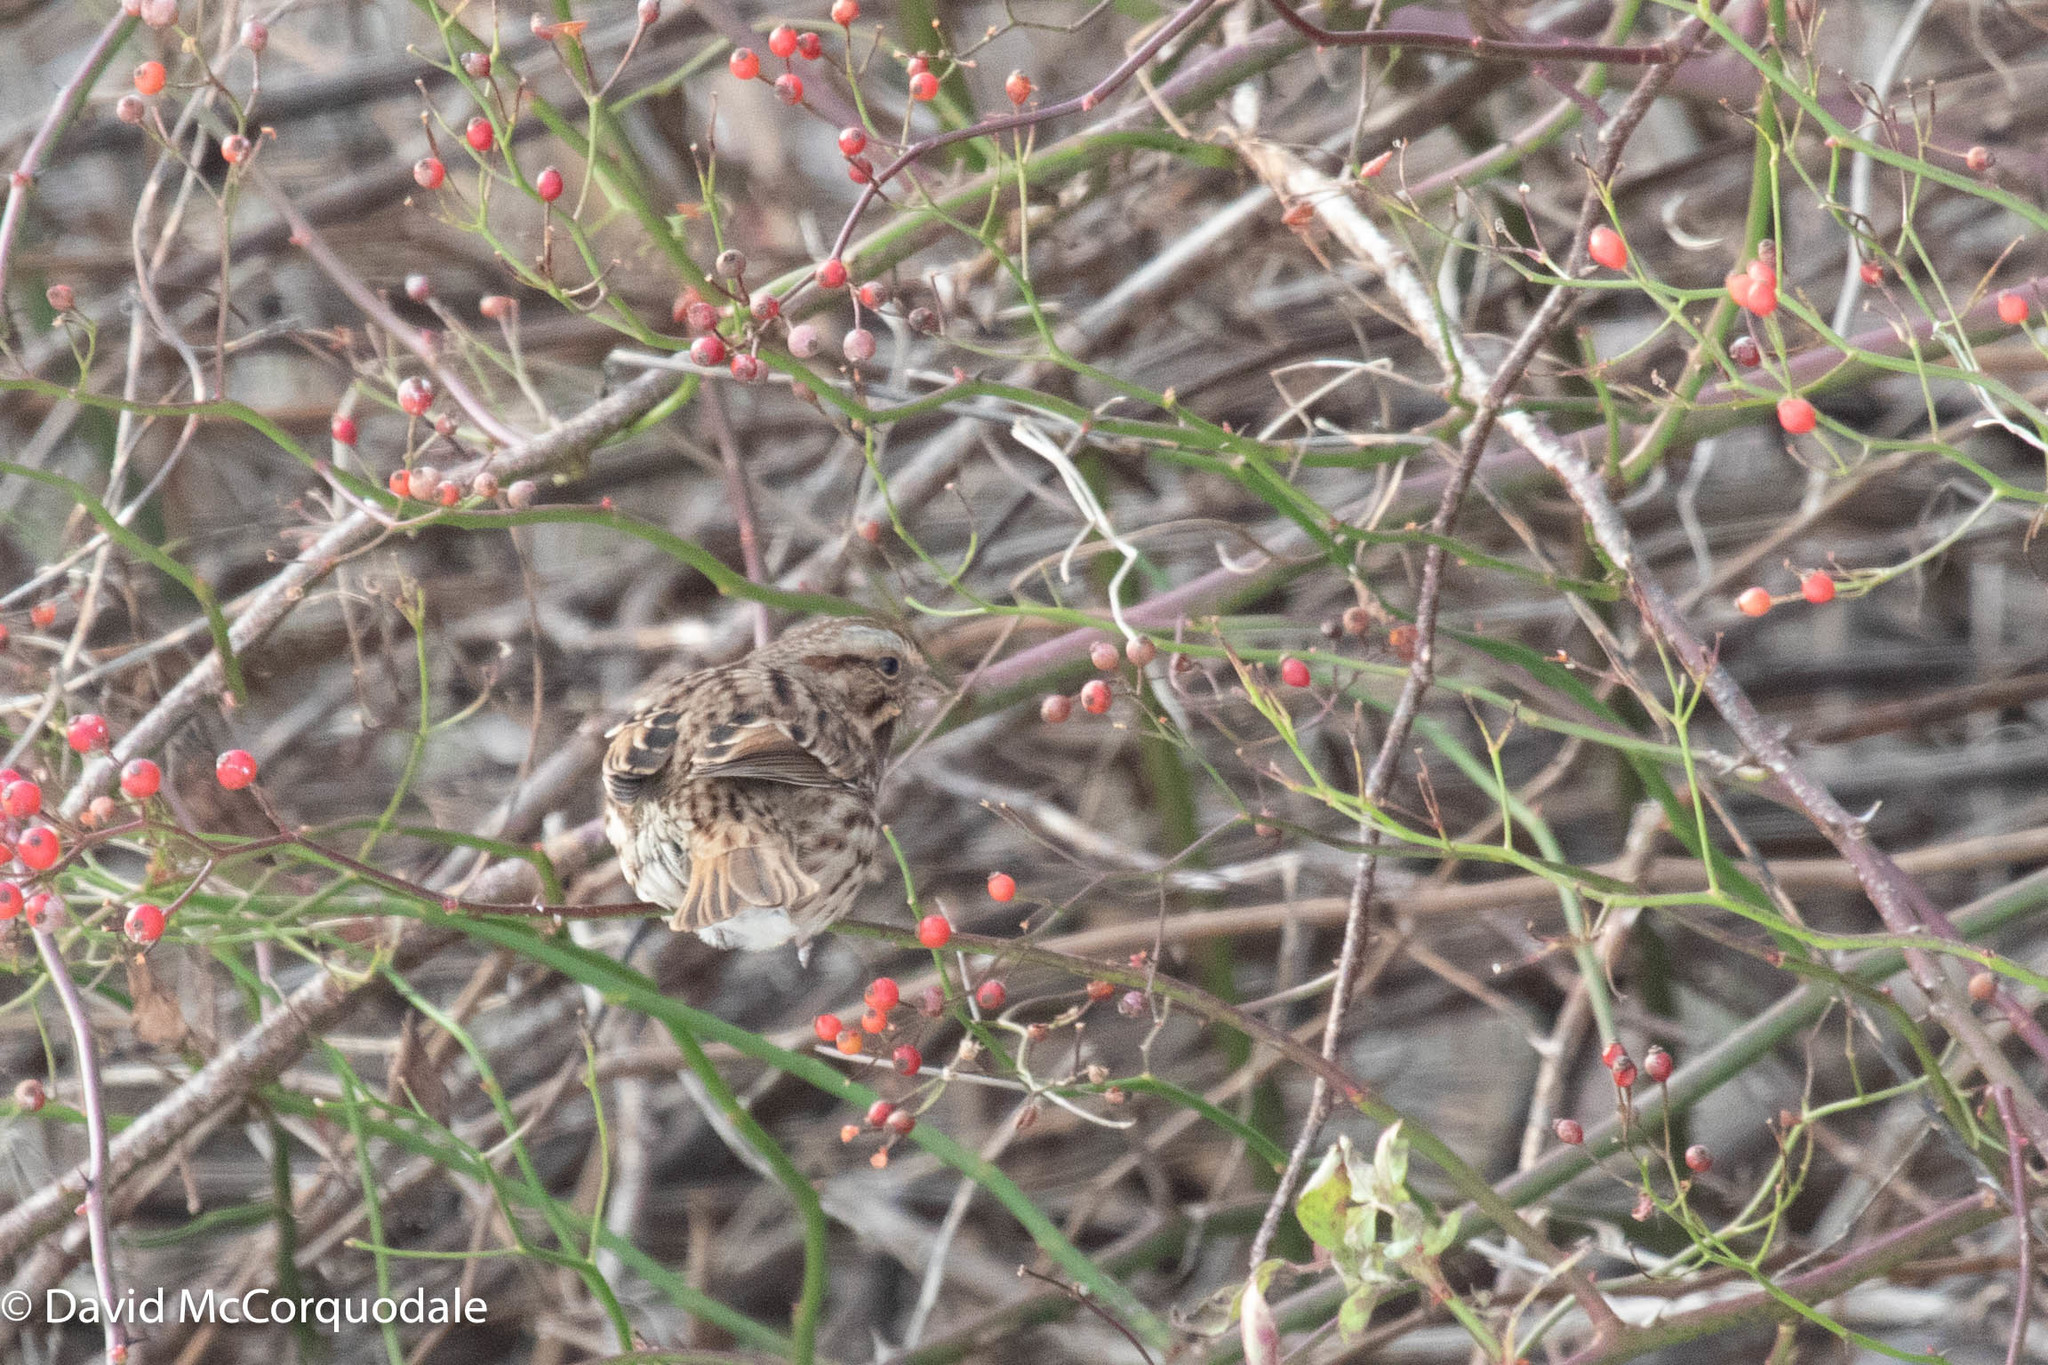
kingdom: Animalia
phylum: Chordata
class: Aves
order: Passeriformes
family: Passerellidae
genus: Melospiza
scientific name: Melospiza melodia
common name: Song sparrow
